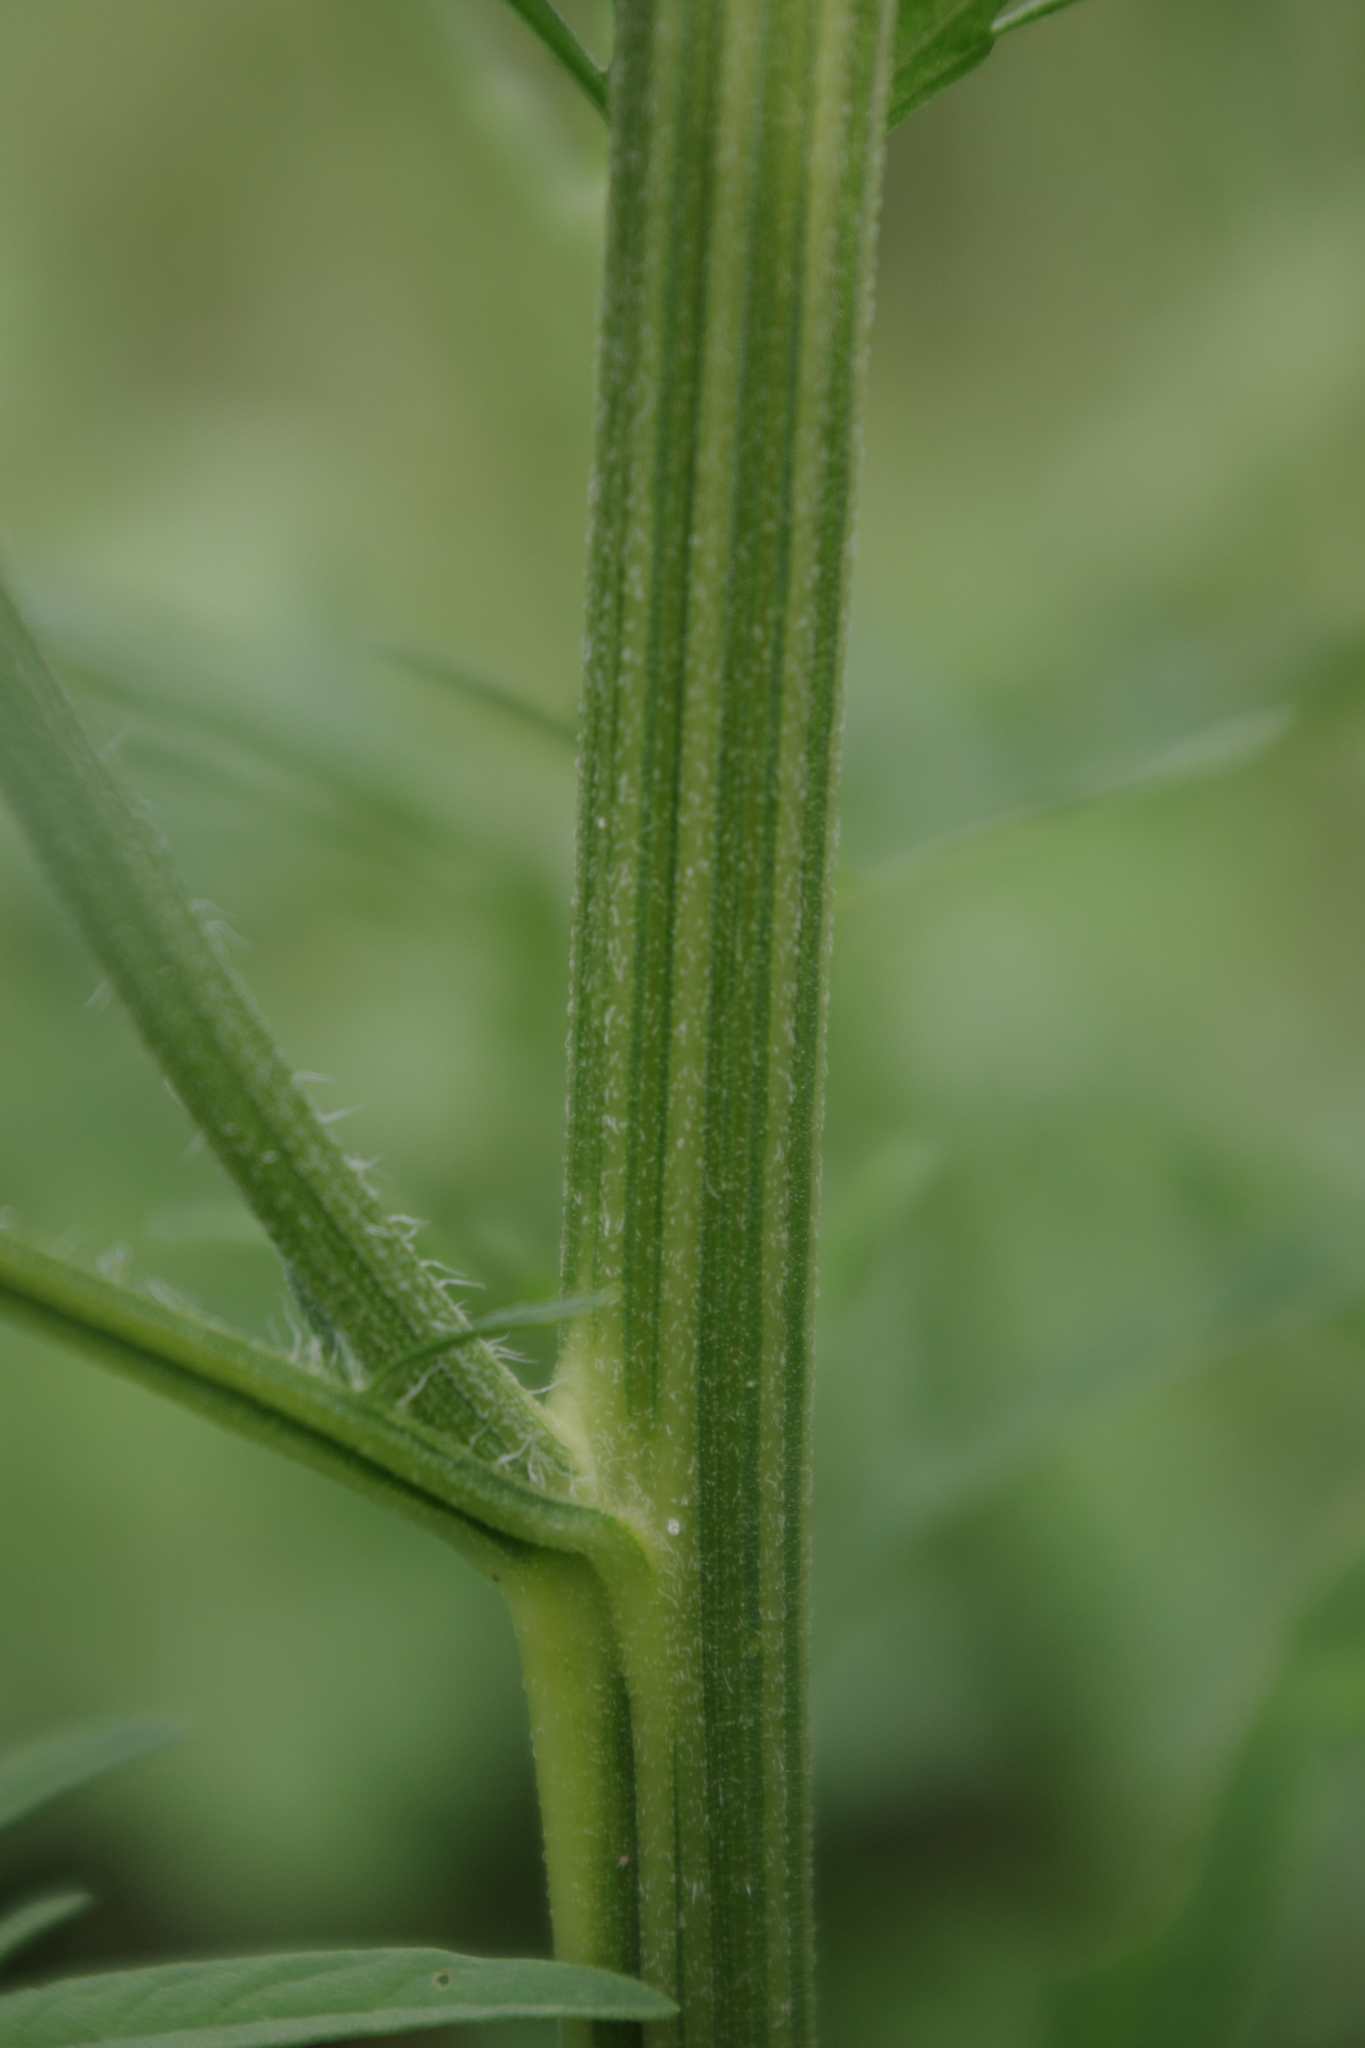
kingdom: Plantae
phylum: Tracheophyta
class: Magnoliopsida
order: Asterales
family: Asteraceae
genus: Parthenium
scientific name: Parthenium hysterophorus
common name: Santa maria feverfew
